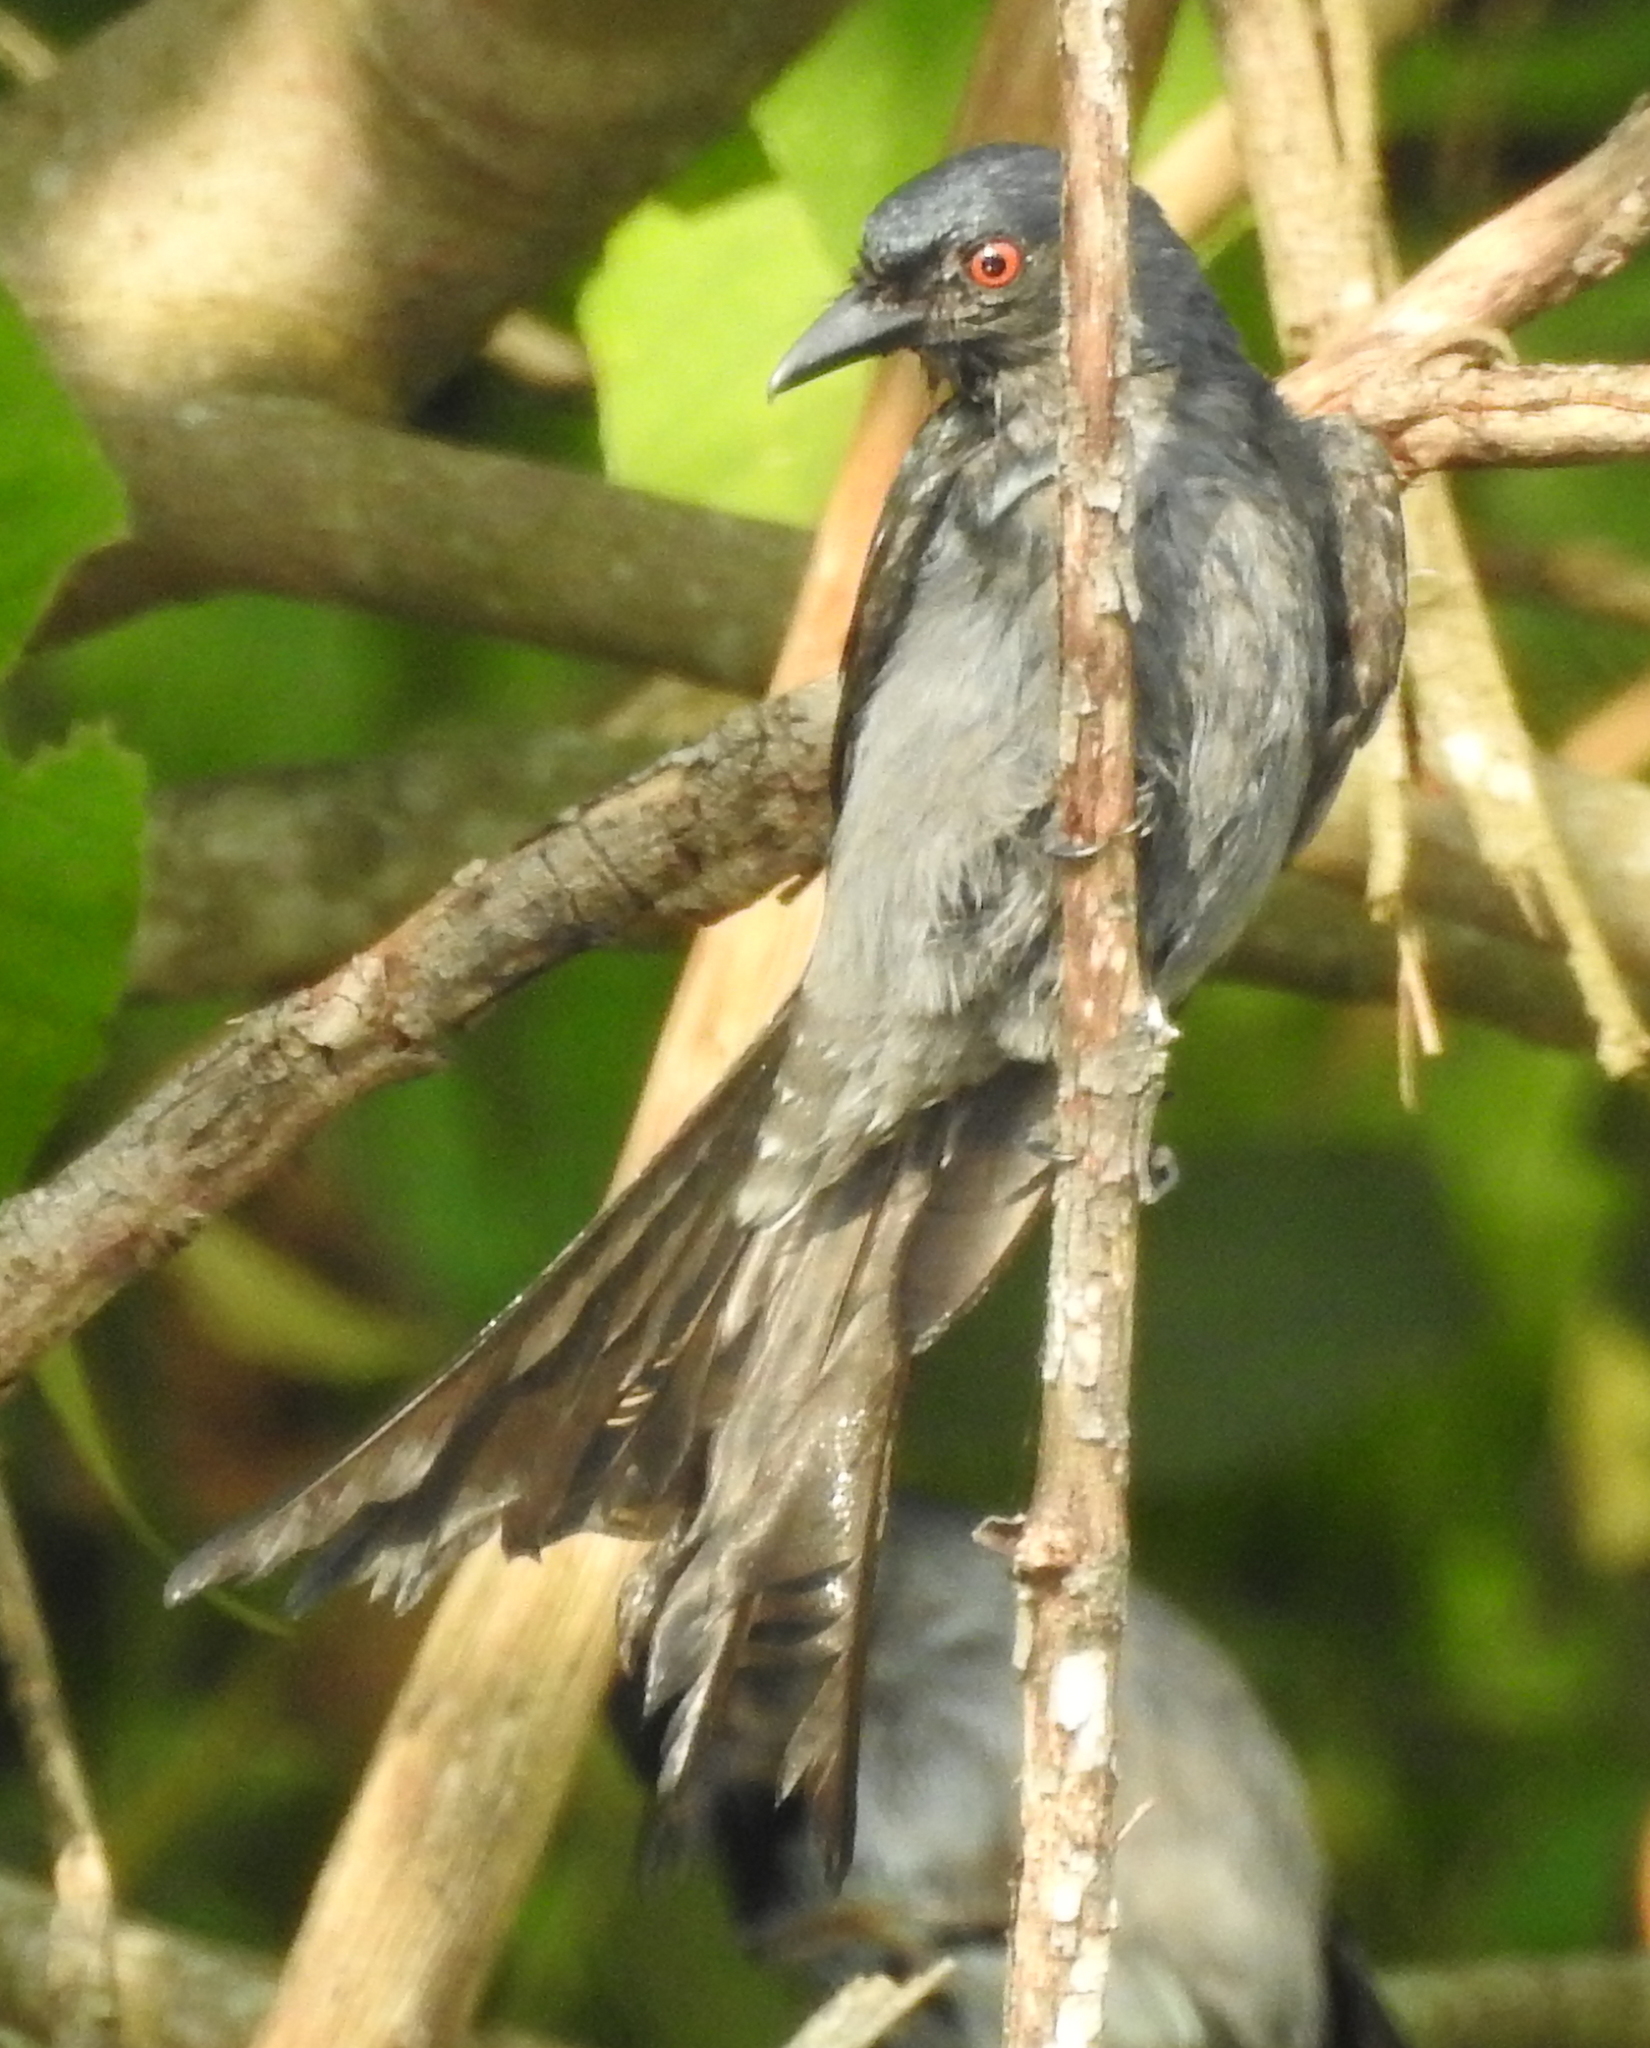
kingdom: Animalia
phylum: Chordata
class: Aves
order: Passeriformes
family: Dicruridae
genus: Dicrurus
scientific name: Dicrurus leucophaeus
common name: Ashy drongo
